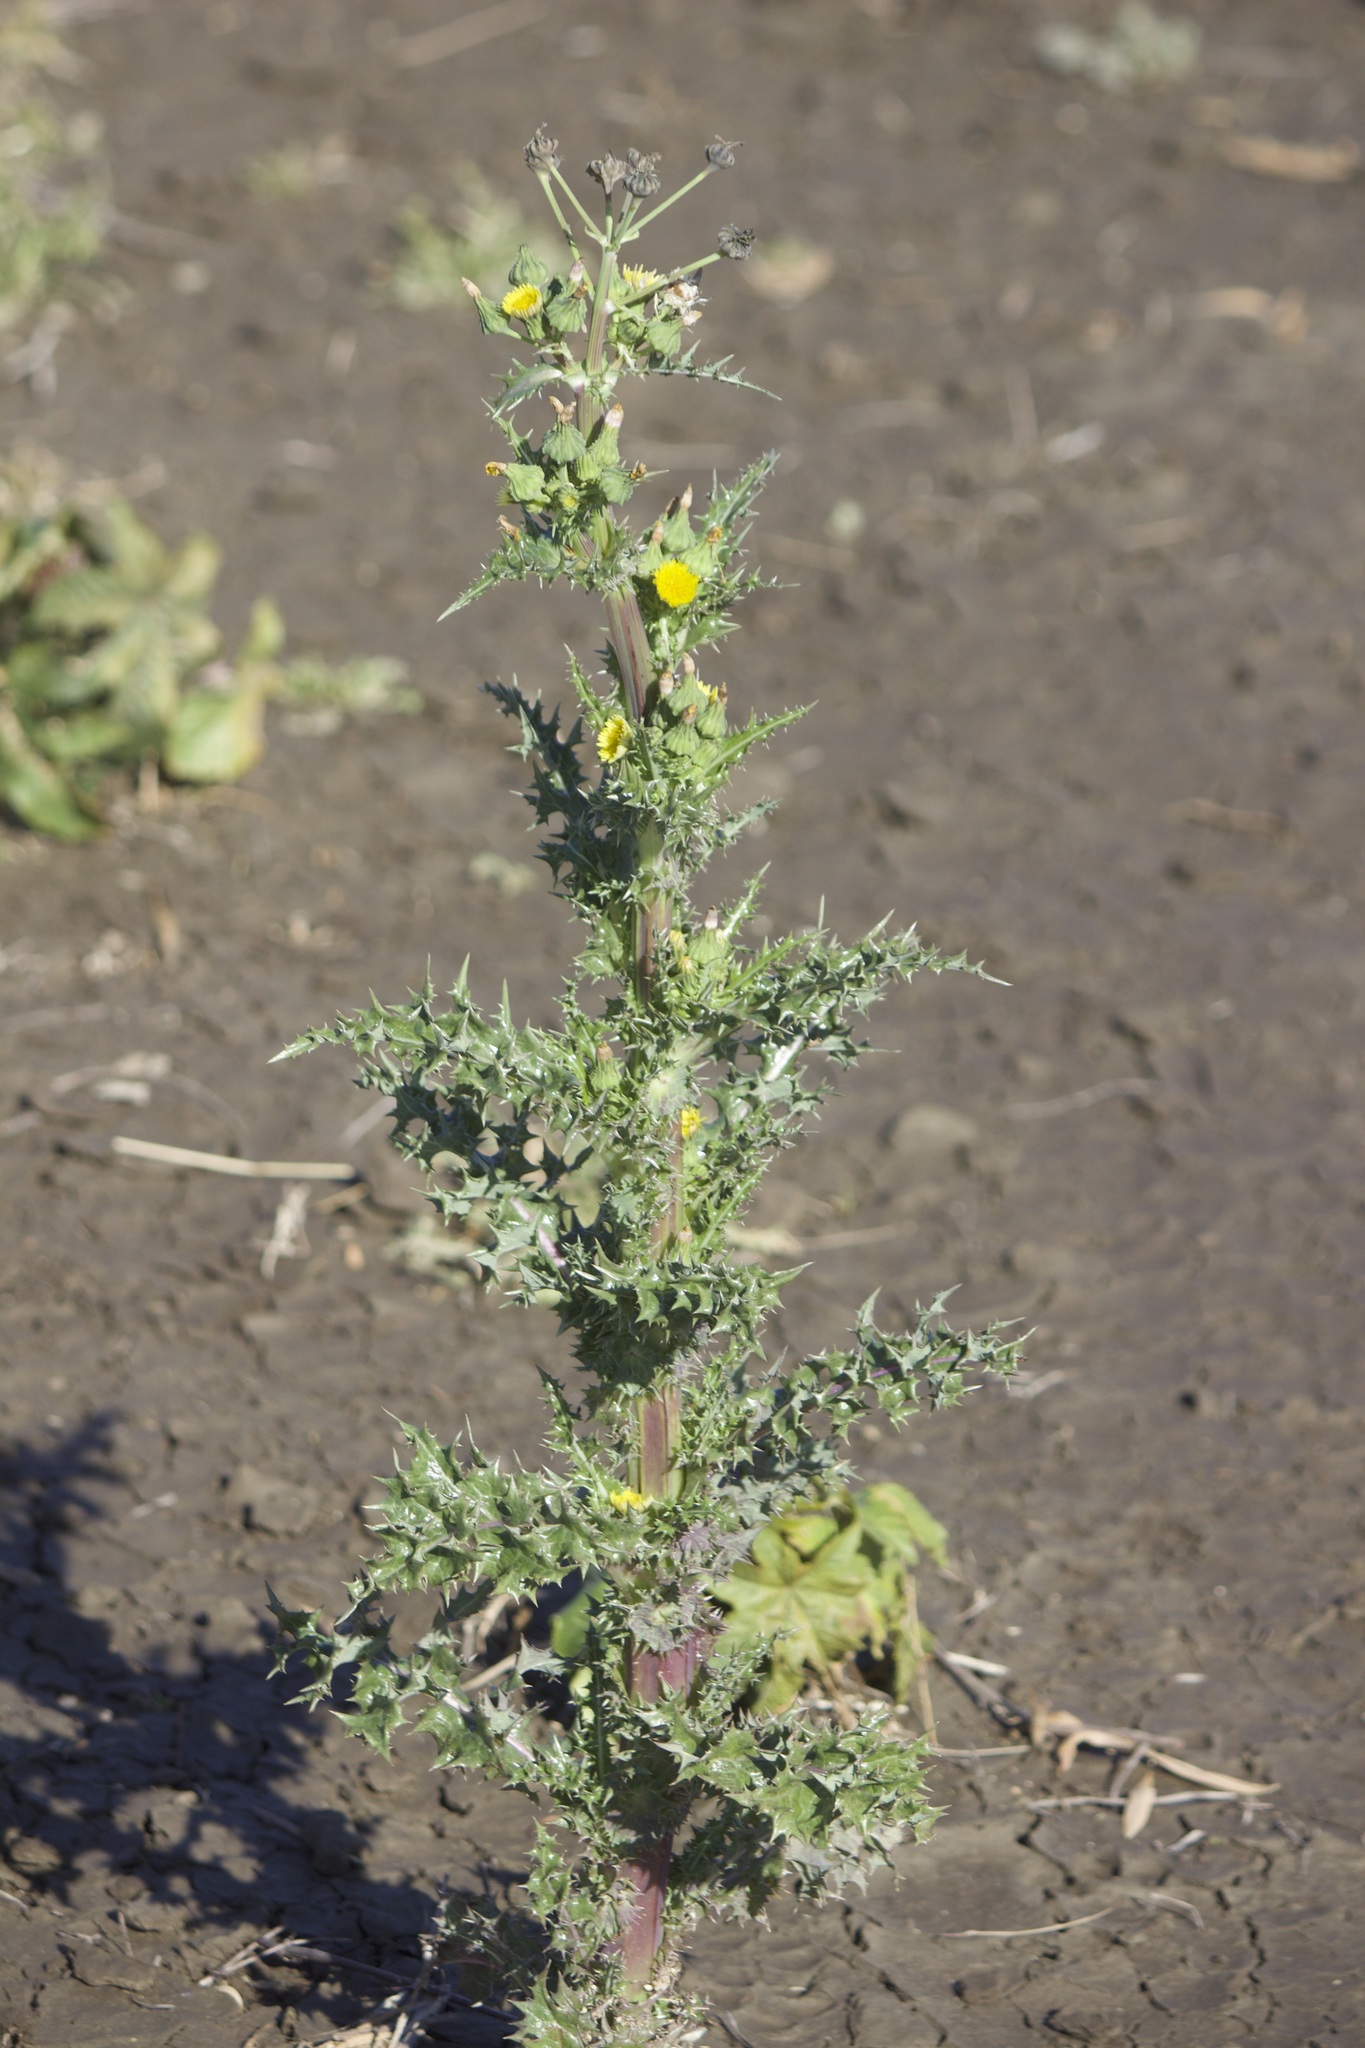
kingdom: Plantae
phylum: Tracheophyta
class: Magnoliopsida
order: Asterales
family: Asteraceae
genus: Sonchus
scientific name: Sonchus asper
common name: Prickly sow-thistle
